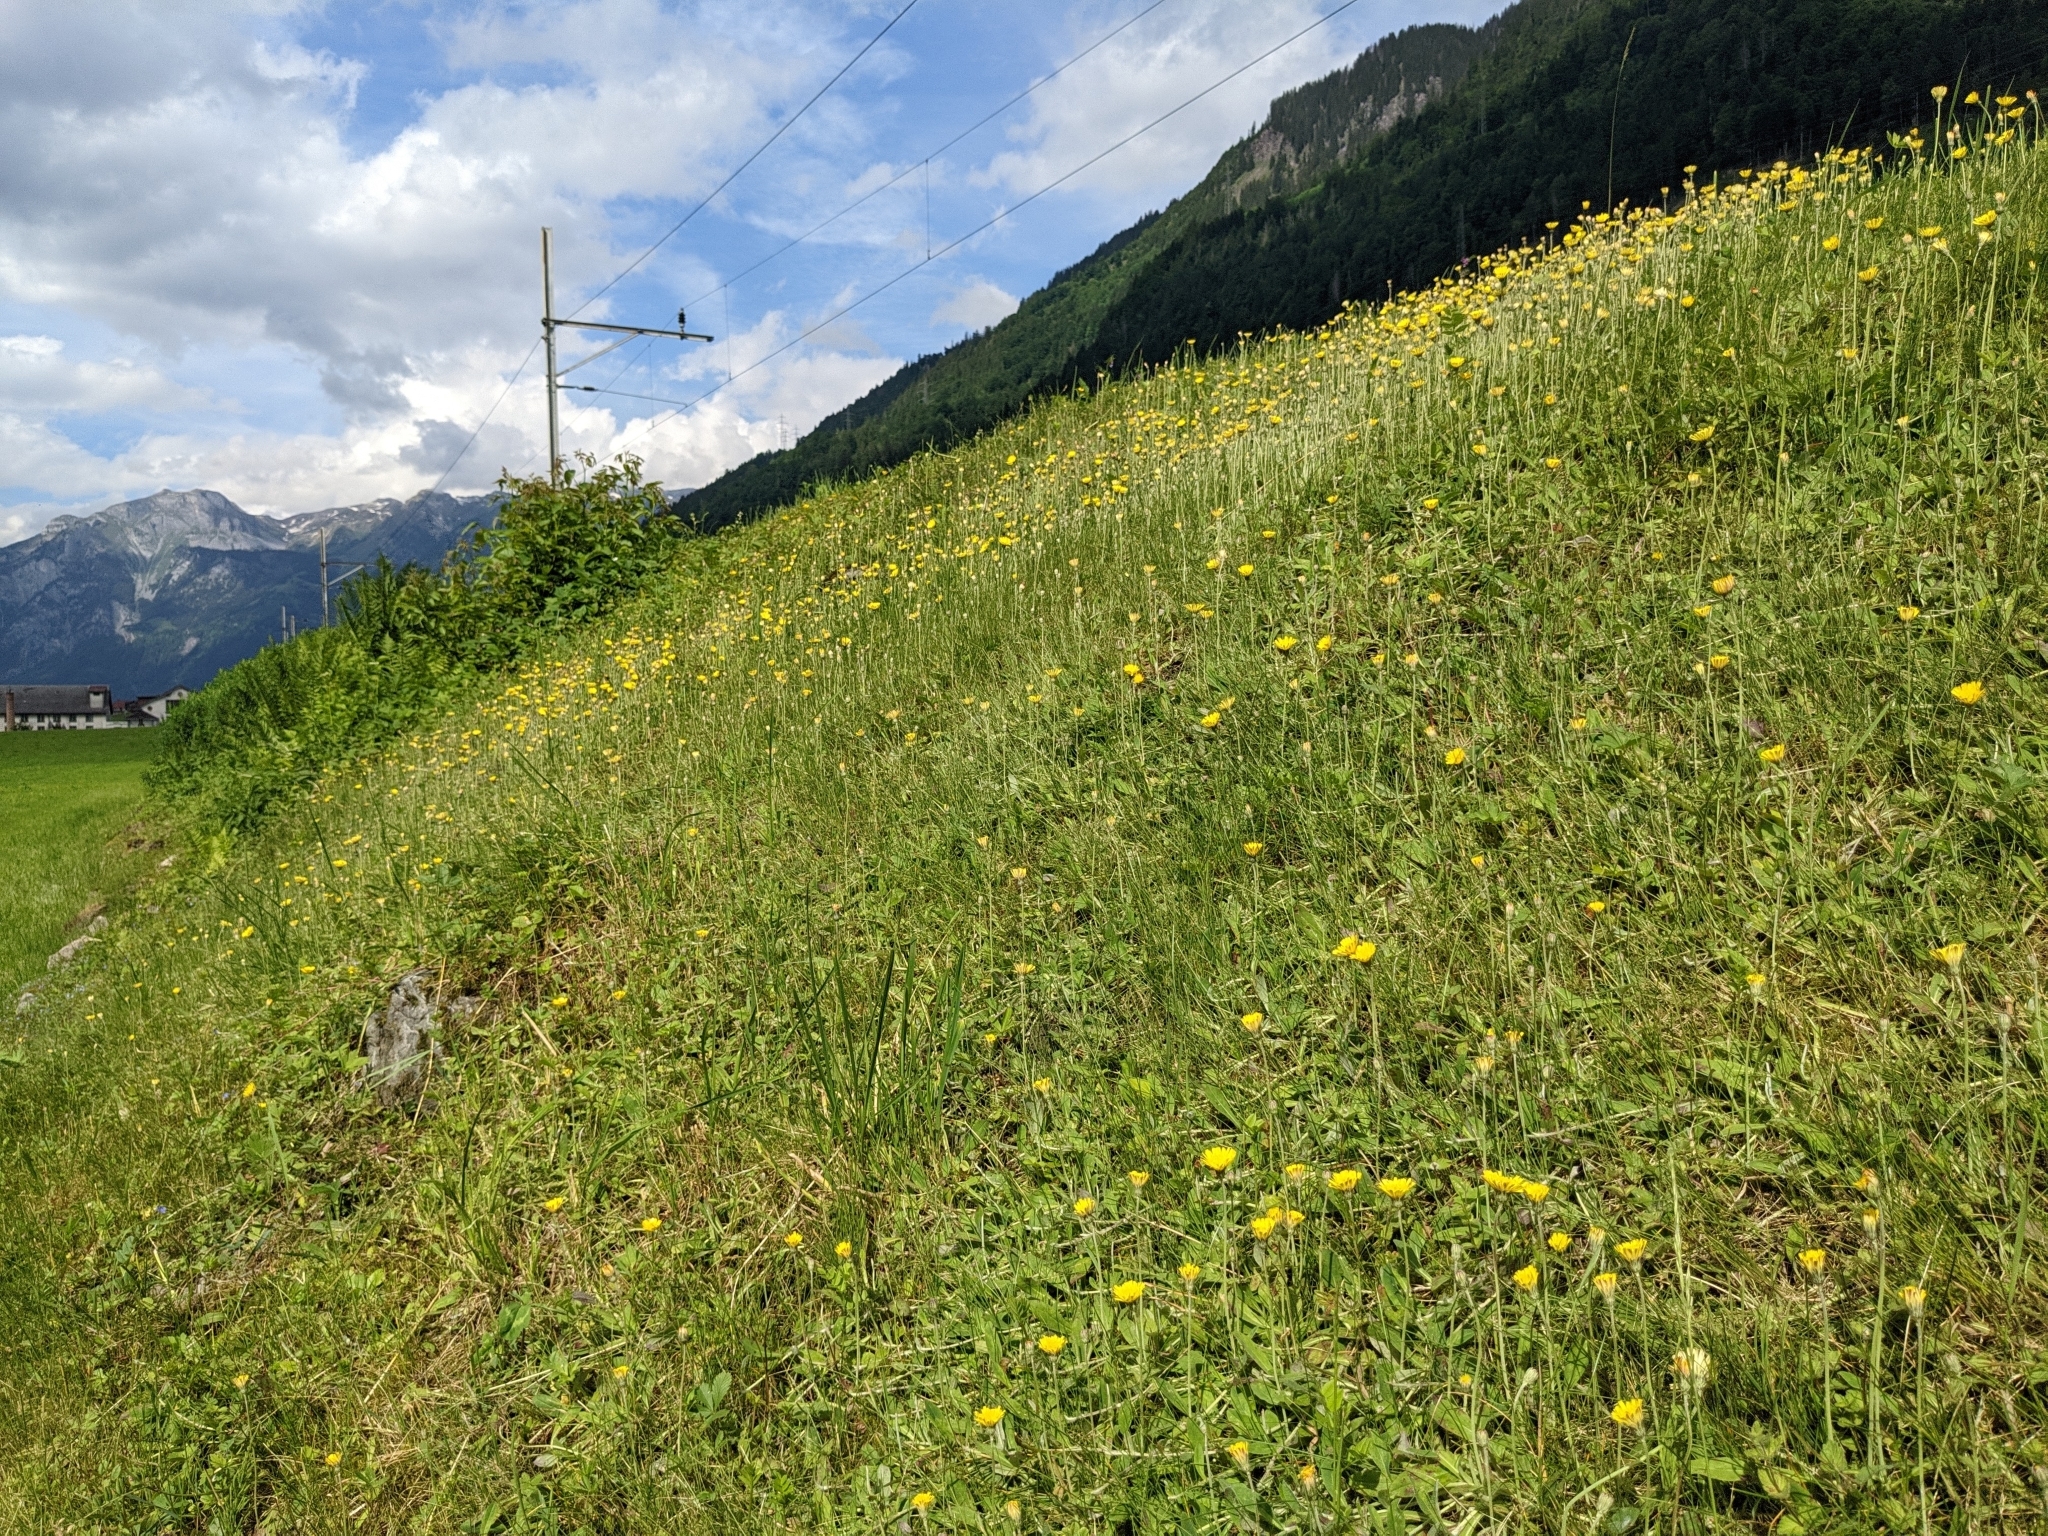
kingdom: Plantae
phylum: Tracheophyta
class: Magnoliopsida
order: Asterales
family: Asteraceae
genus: Pilosella
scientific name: Pilosella officinarum
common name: Mouse-ear hawkweed
